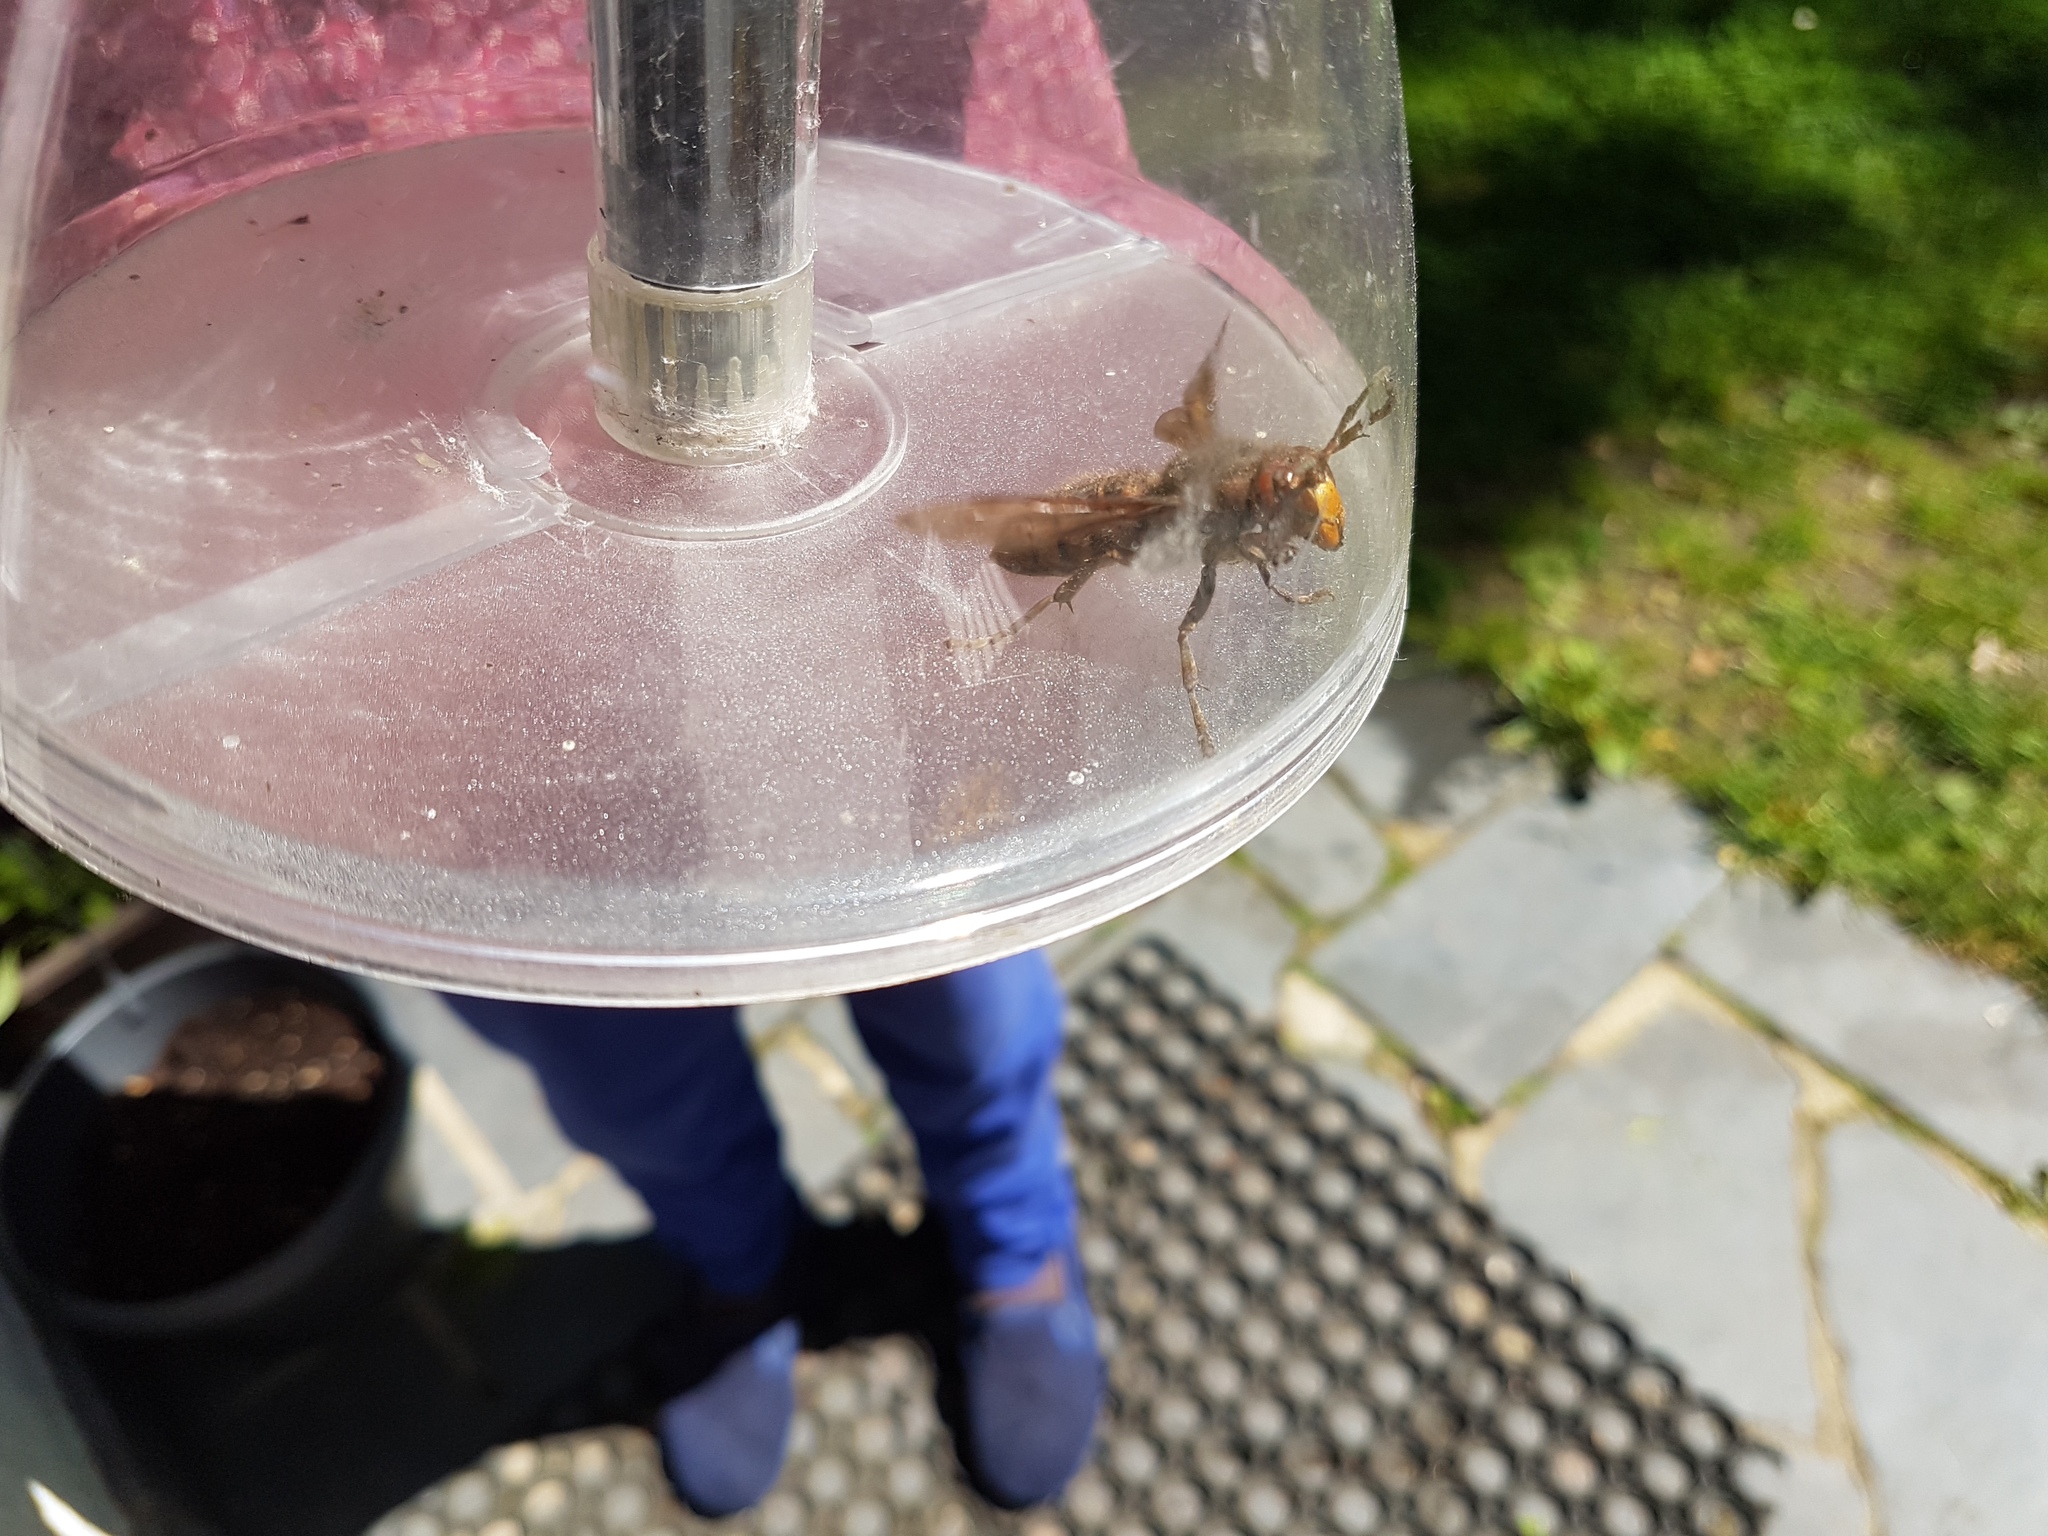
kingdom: Animalia
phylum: Arthropoda
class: Insecta
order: Hymenoptera
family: Vespidae
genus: Vespa
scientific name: Vespa crabro
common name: Hornet
